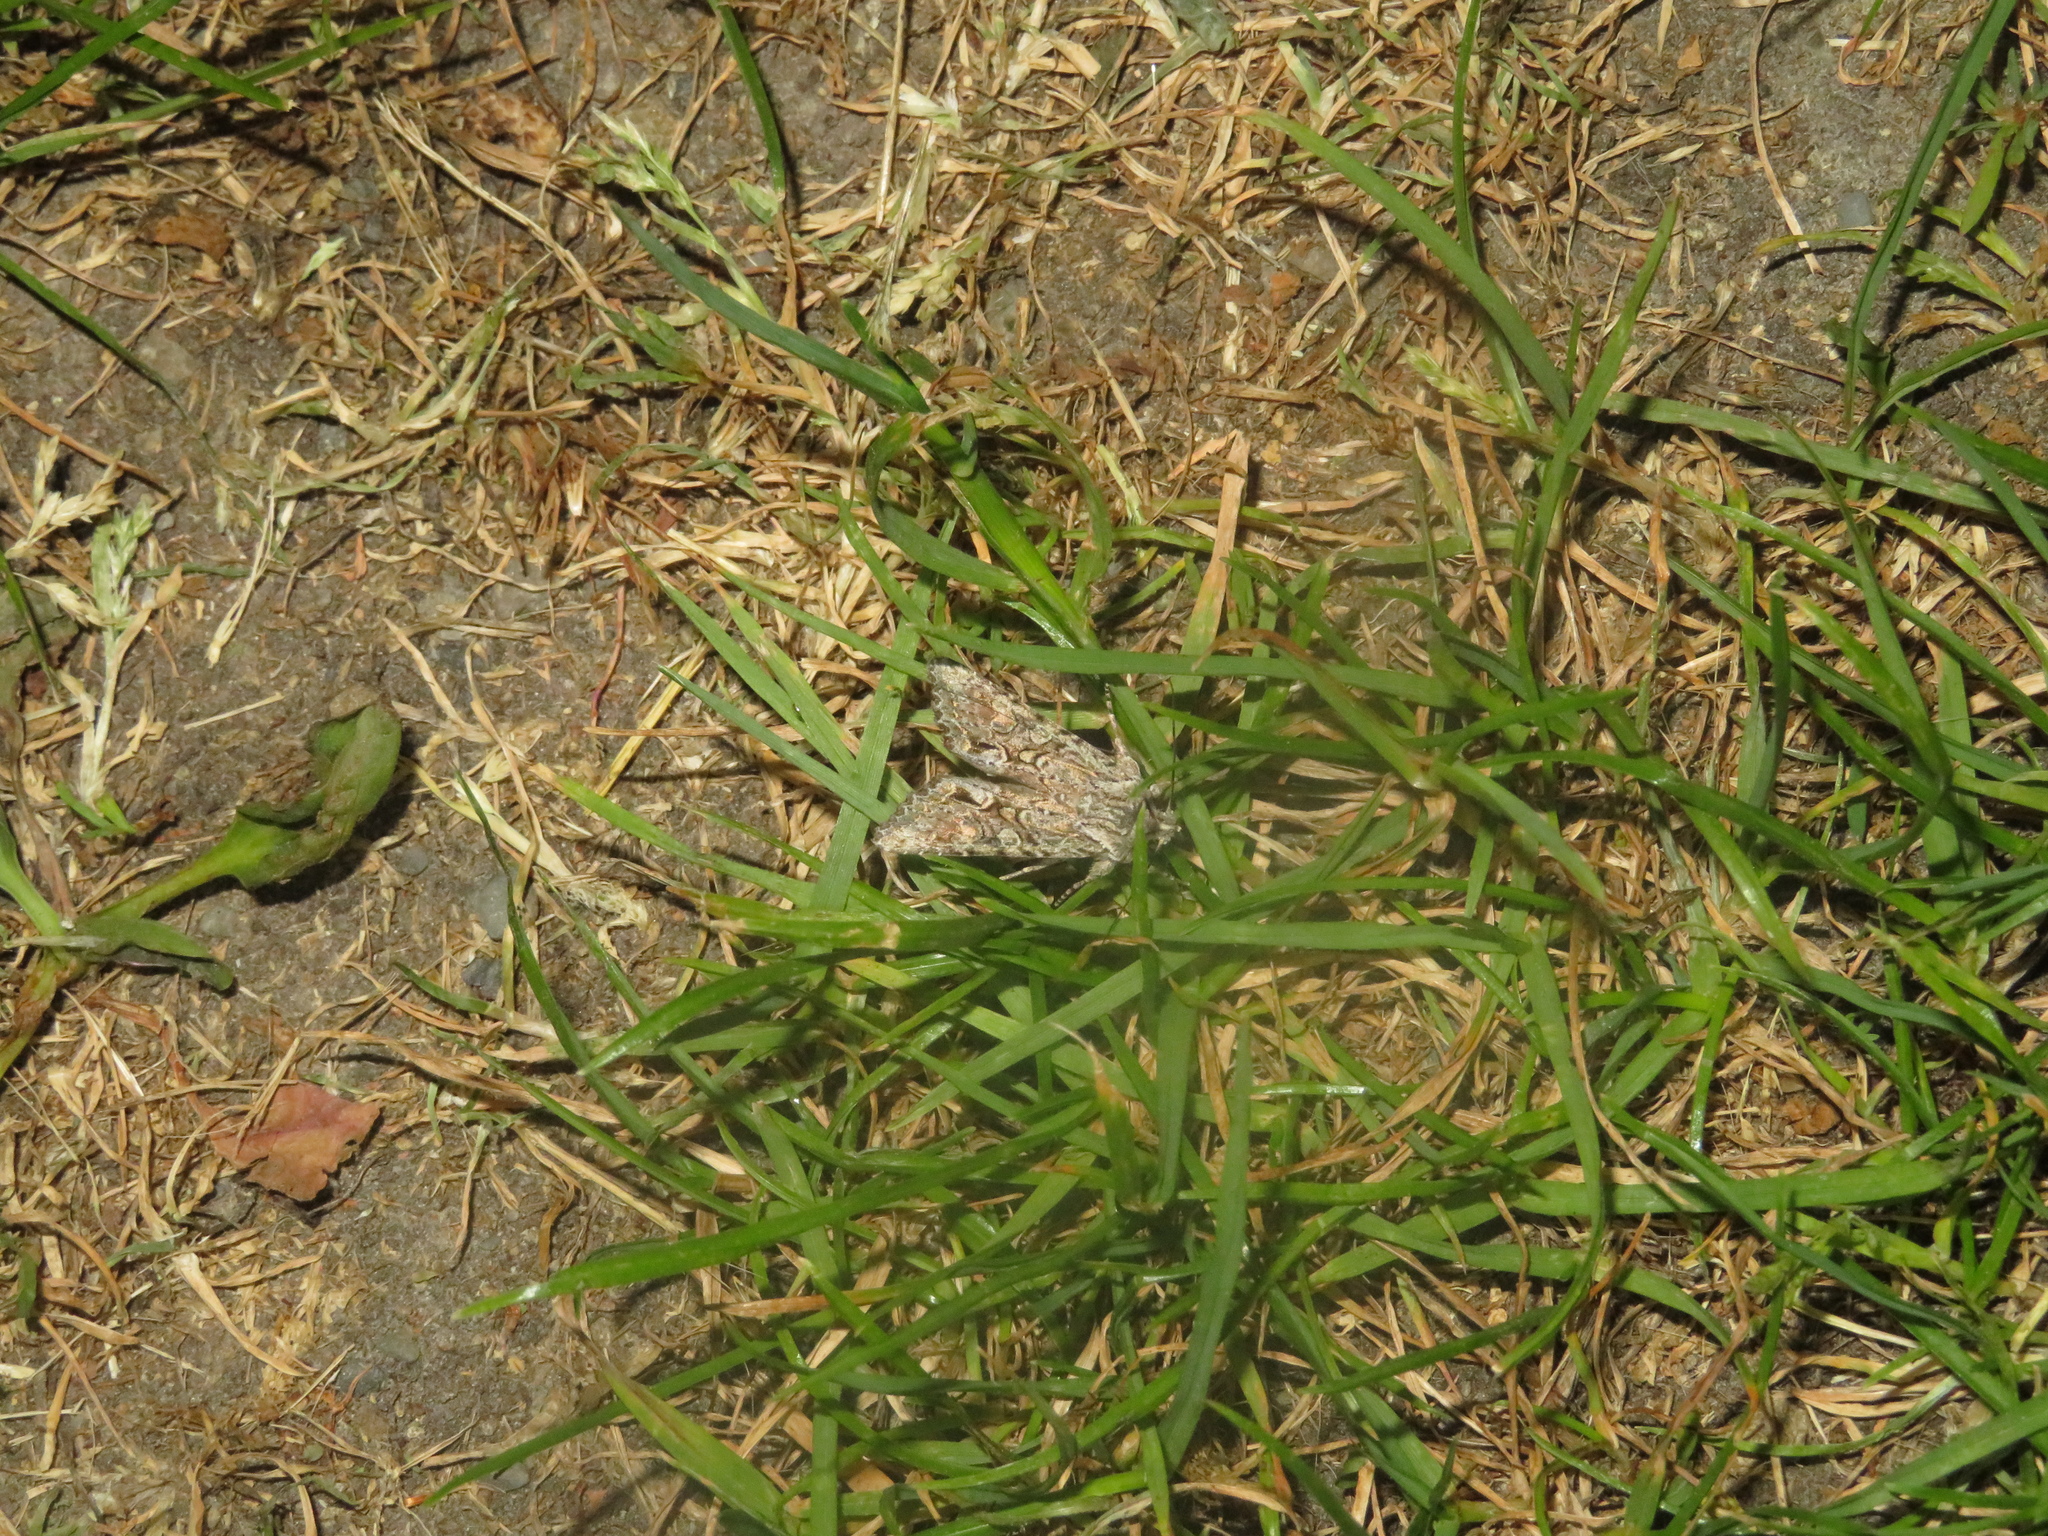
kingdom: Animalia
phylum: Arthropoda
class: Insecta
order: Lepidoptera
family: Noctuidae
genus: Ichneutica
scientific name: Ichneutica mutans
